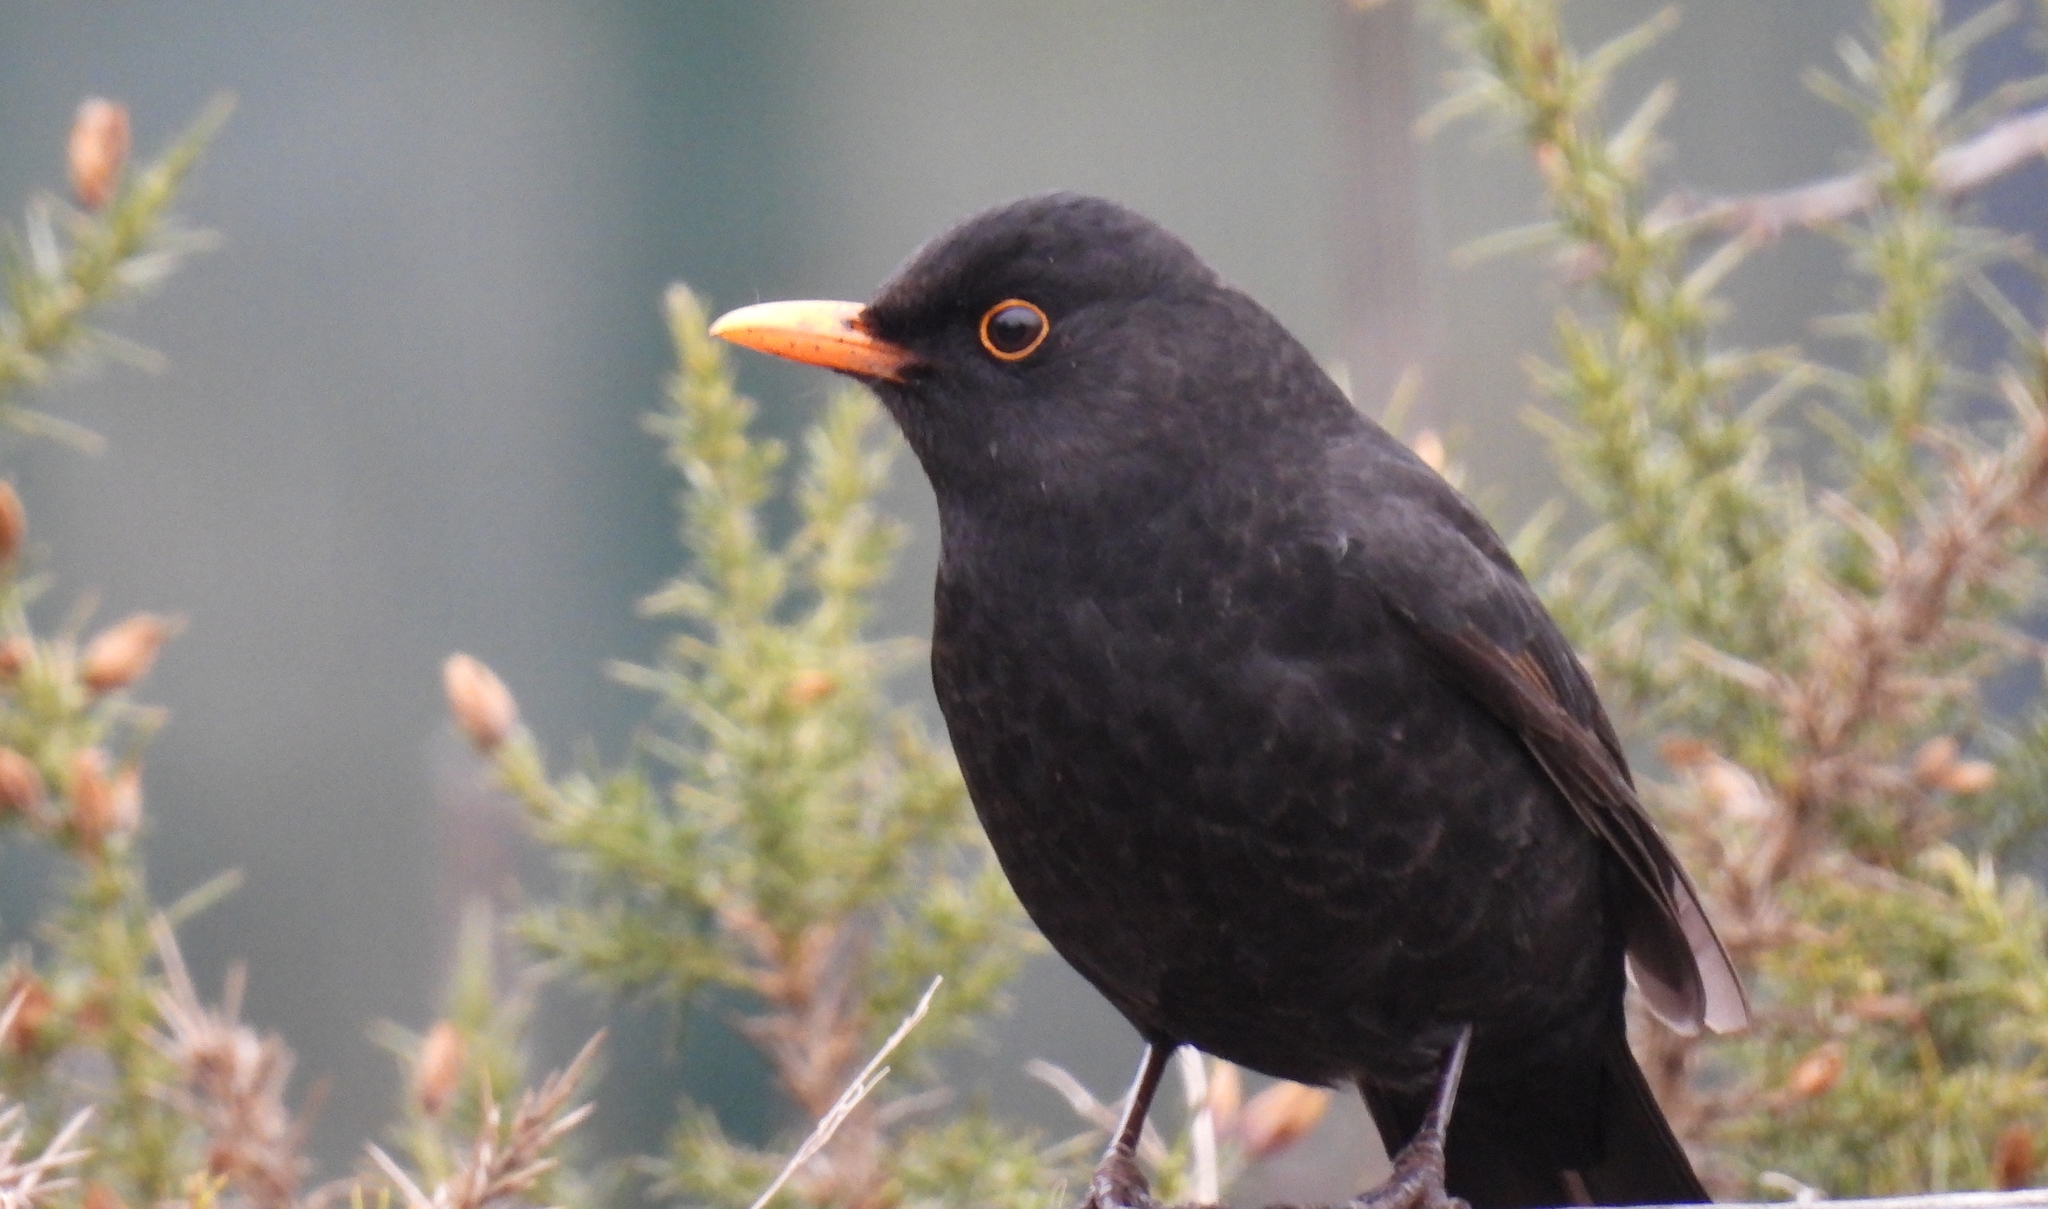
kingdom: Animalia
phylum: Chordata
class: Aves
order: Passeriformes
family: Turdidae
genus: Turdus
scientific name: Turdus merula
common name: Common blackbird
